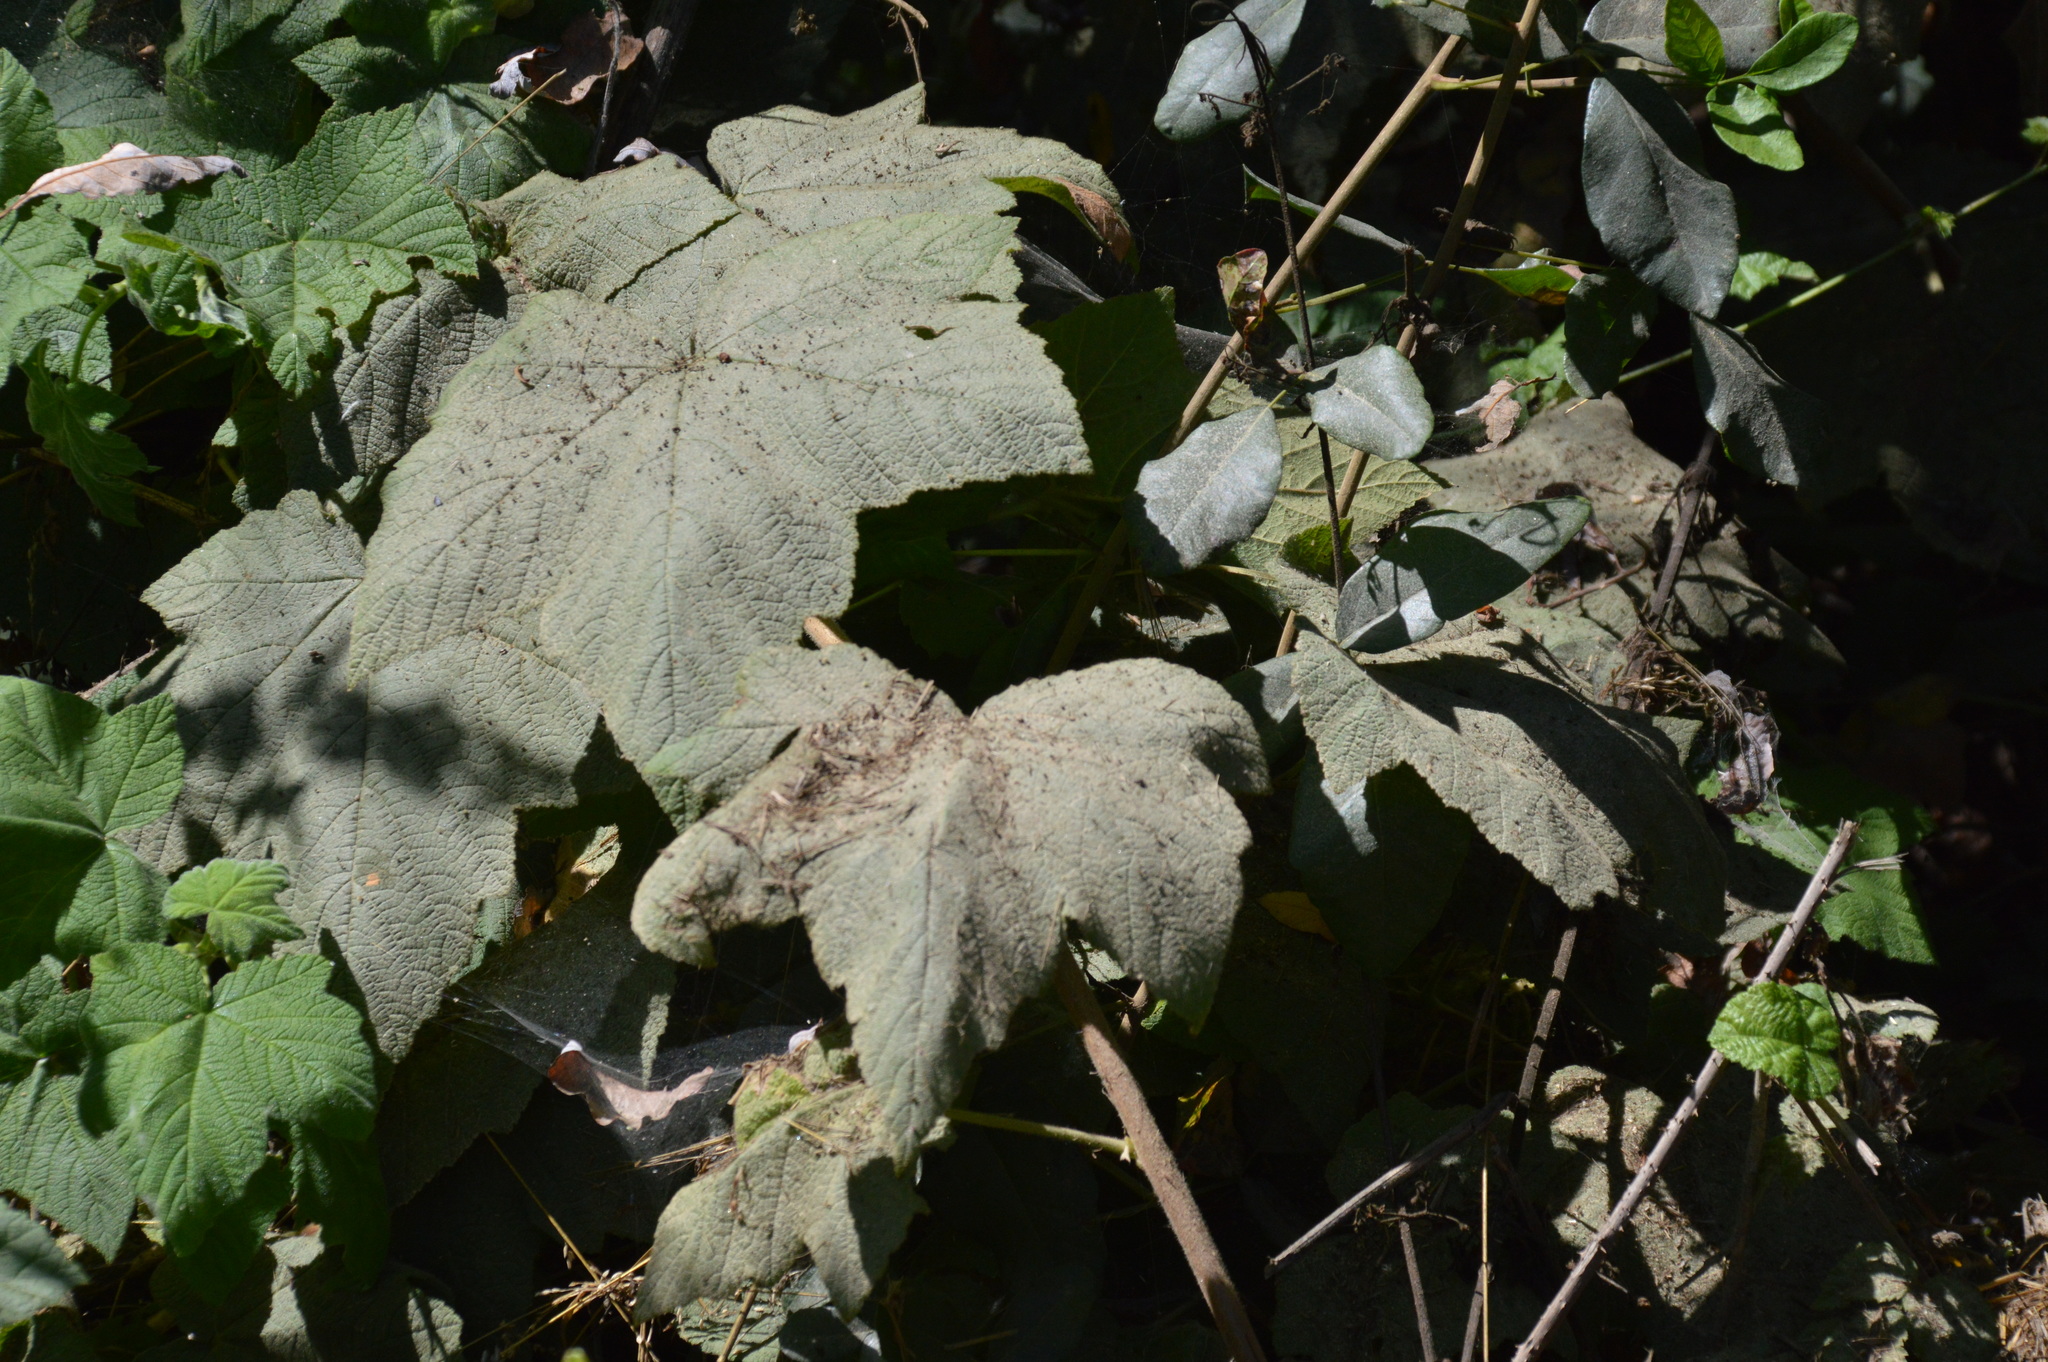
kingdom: Plantae
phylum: Tracheophyta
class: Magnoliopsida
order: Rosales
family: Rosaceae
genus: Rubus
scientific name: Rubus parviflorus
